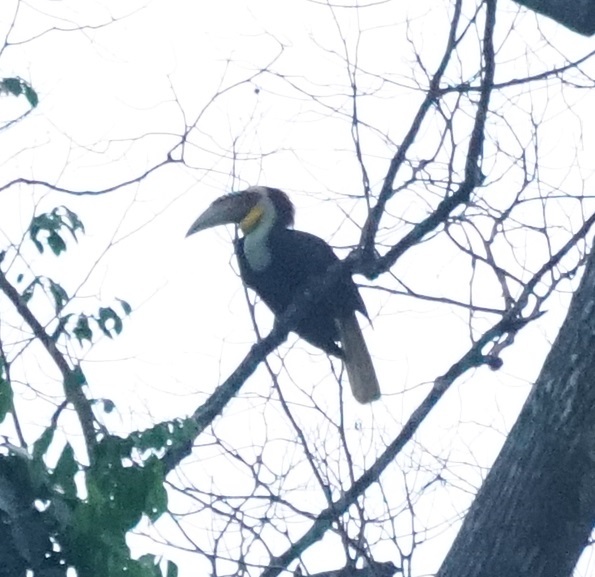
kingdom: Animalia
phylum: Chordata
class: Aves
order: Bucerotiformes
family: Bucerotidae
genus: Rhyticeros
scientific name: Rhyticeros undulatus
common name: Wreathed hornbill
